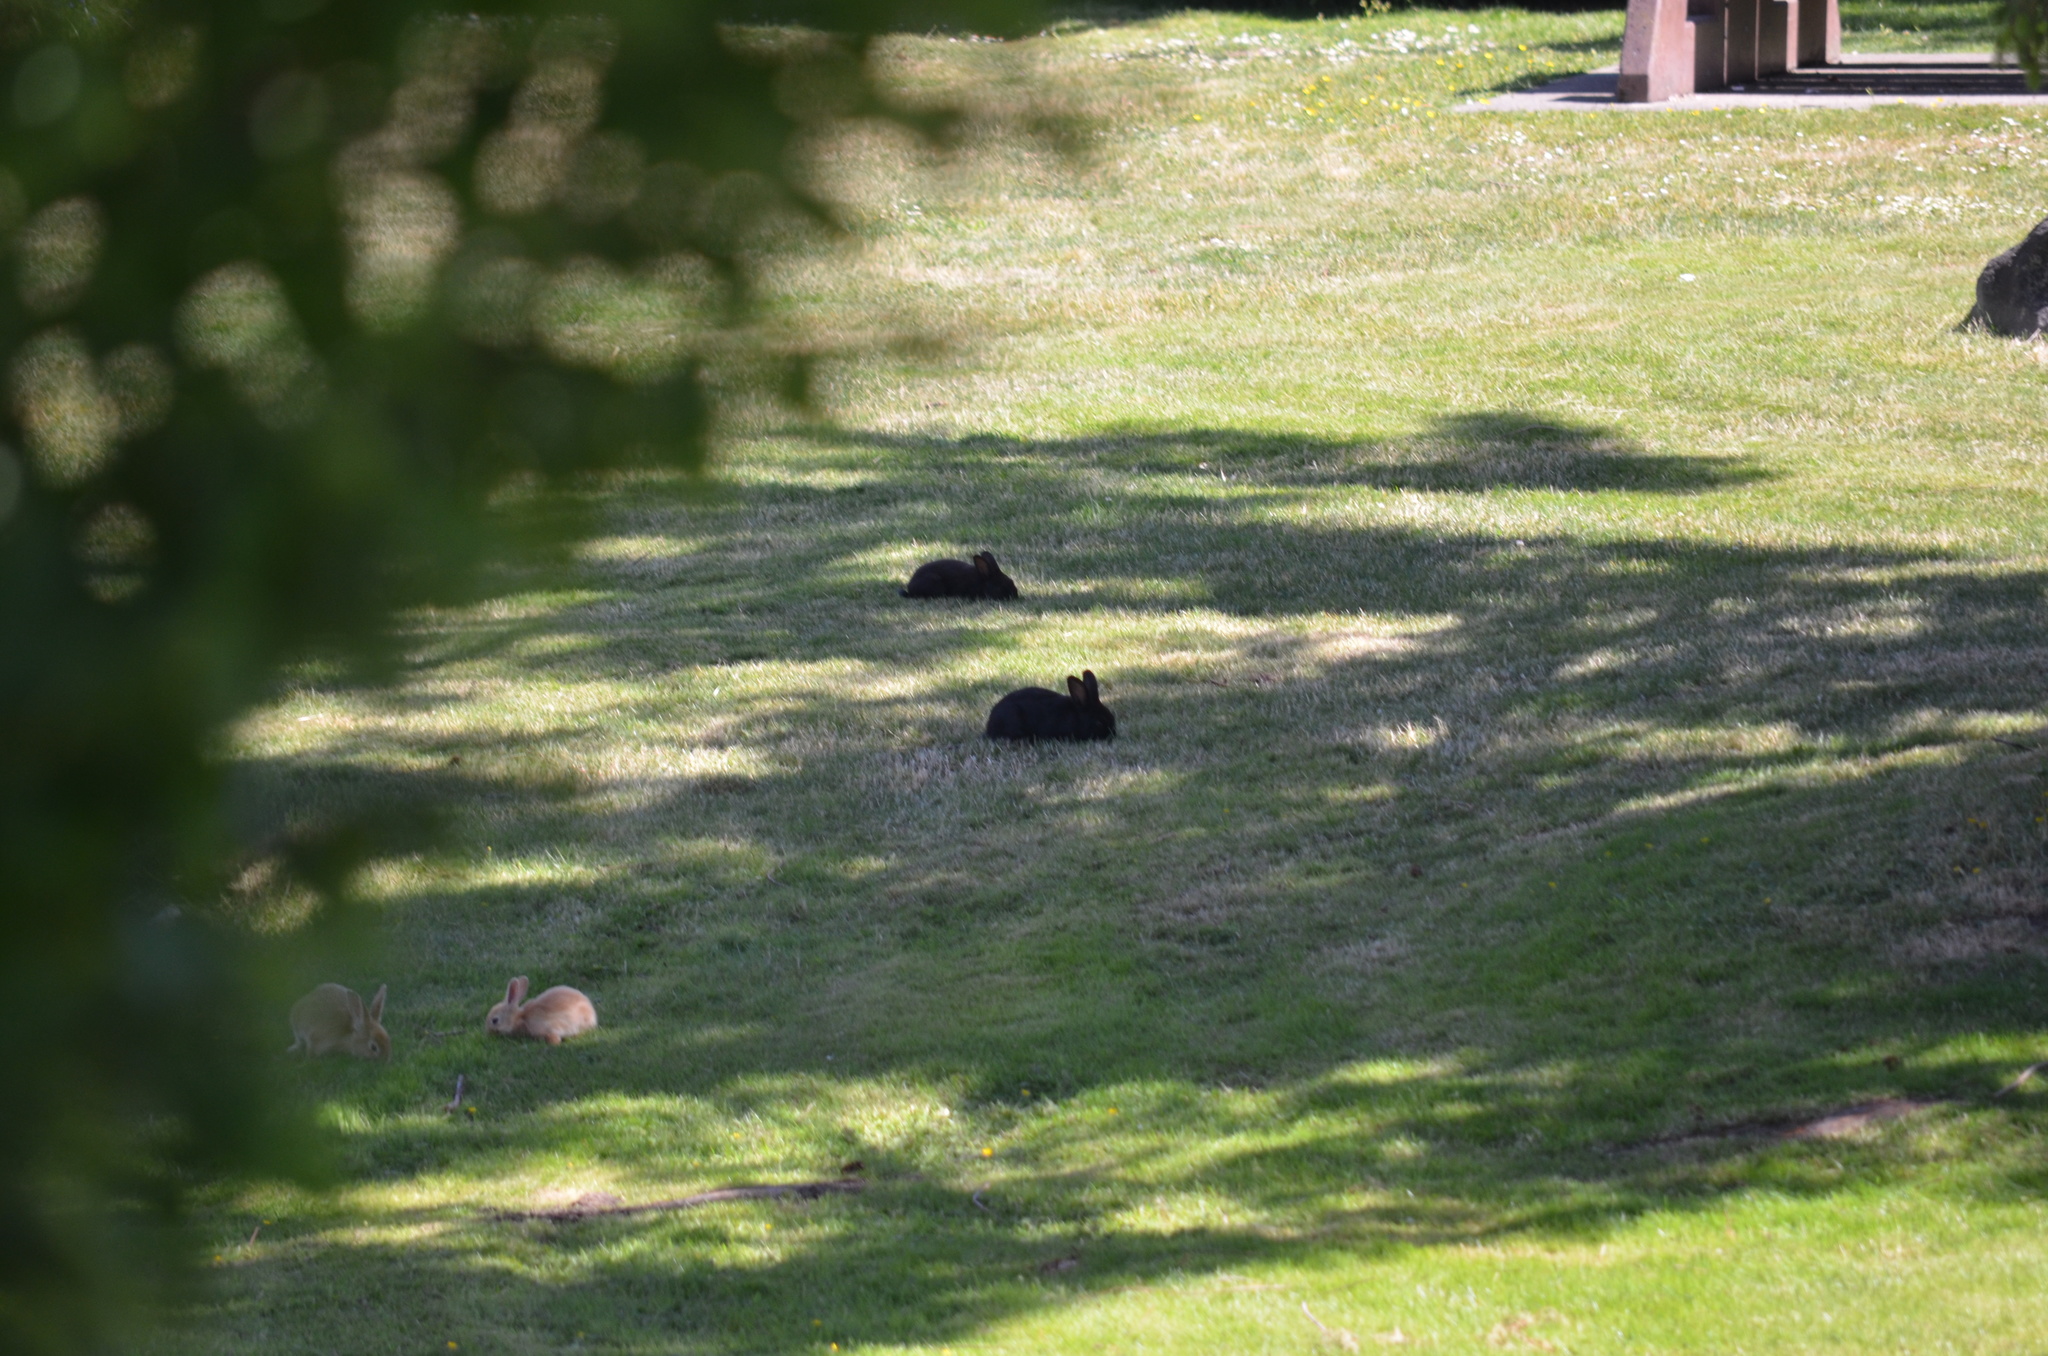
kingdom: Animalia
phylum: Chordata
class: Mammalia
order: Lagomorpha
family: Leporidae
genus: Oryctolagus
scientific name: Oryctolagus cuniculus
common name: European rabbit
